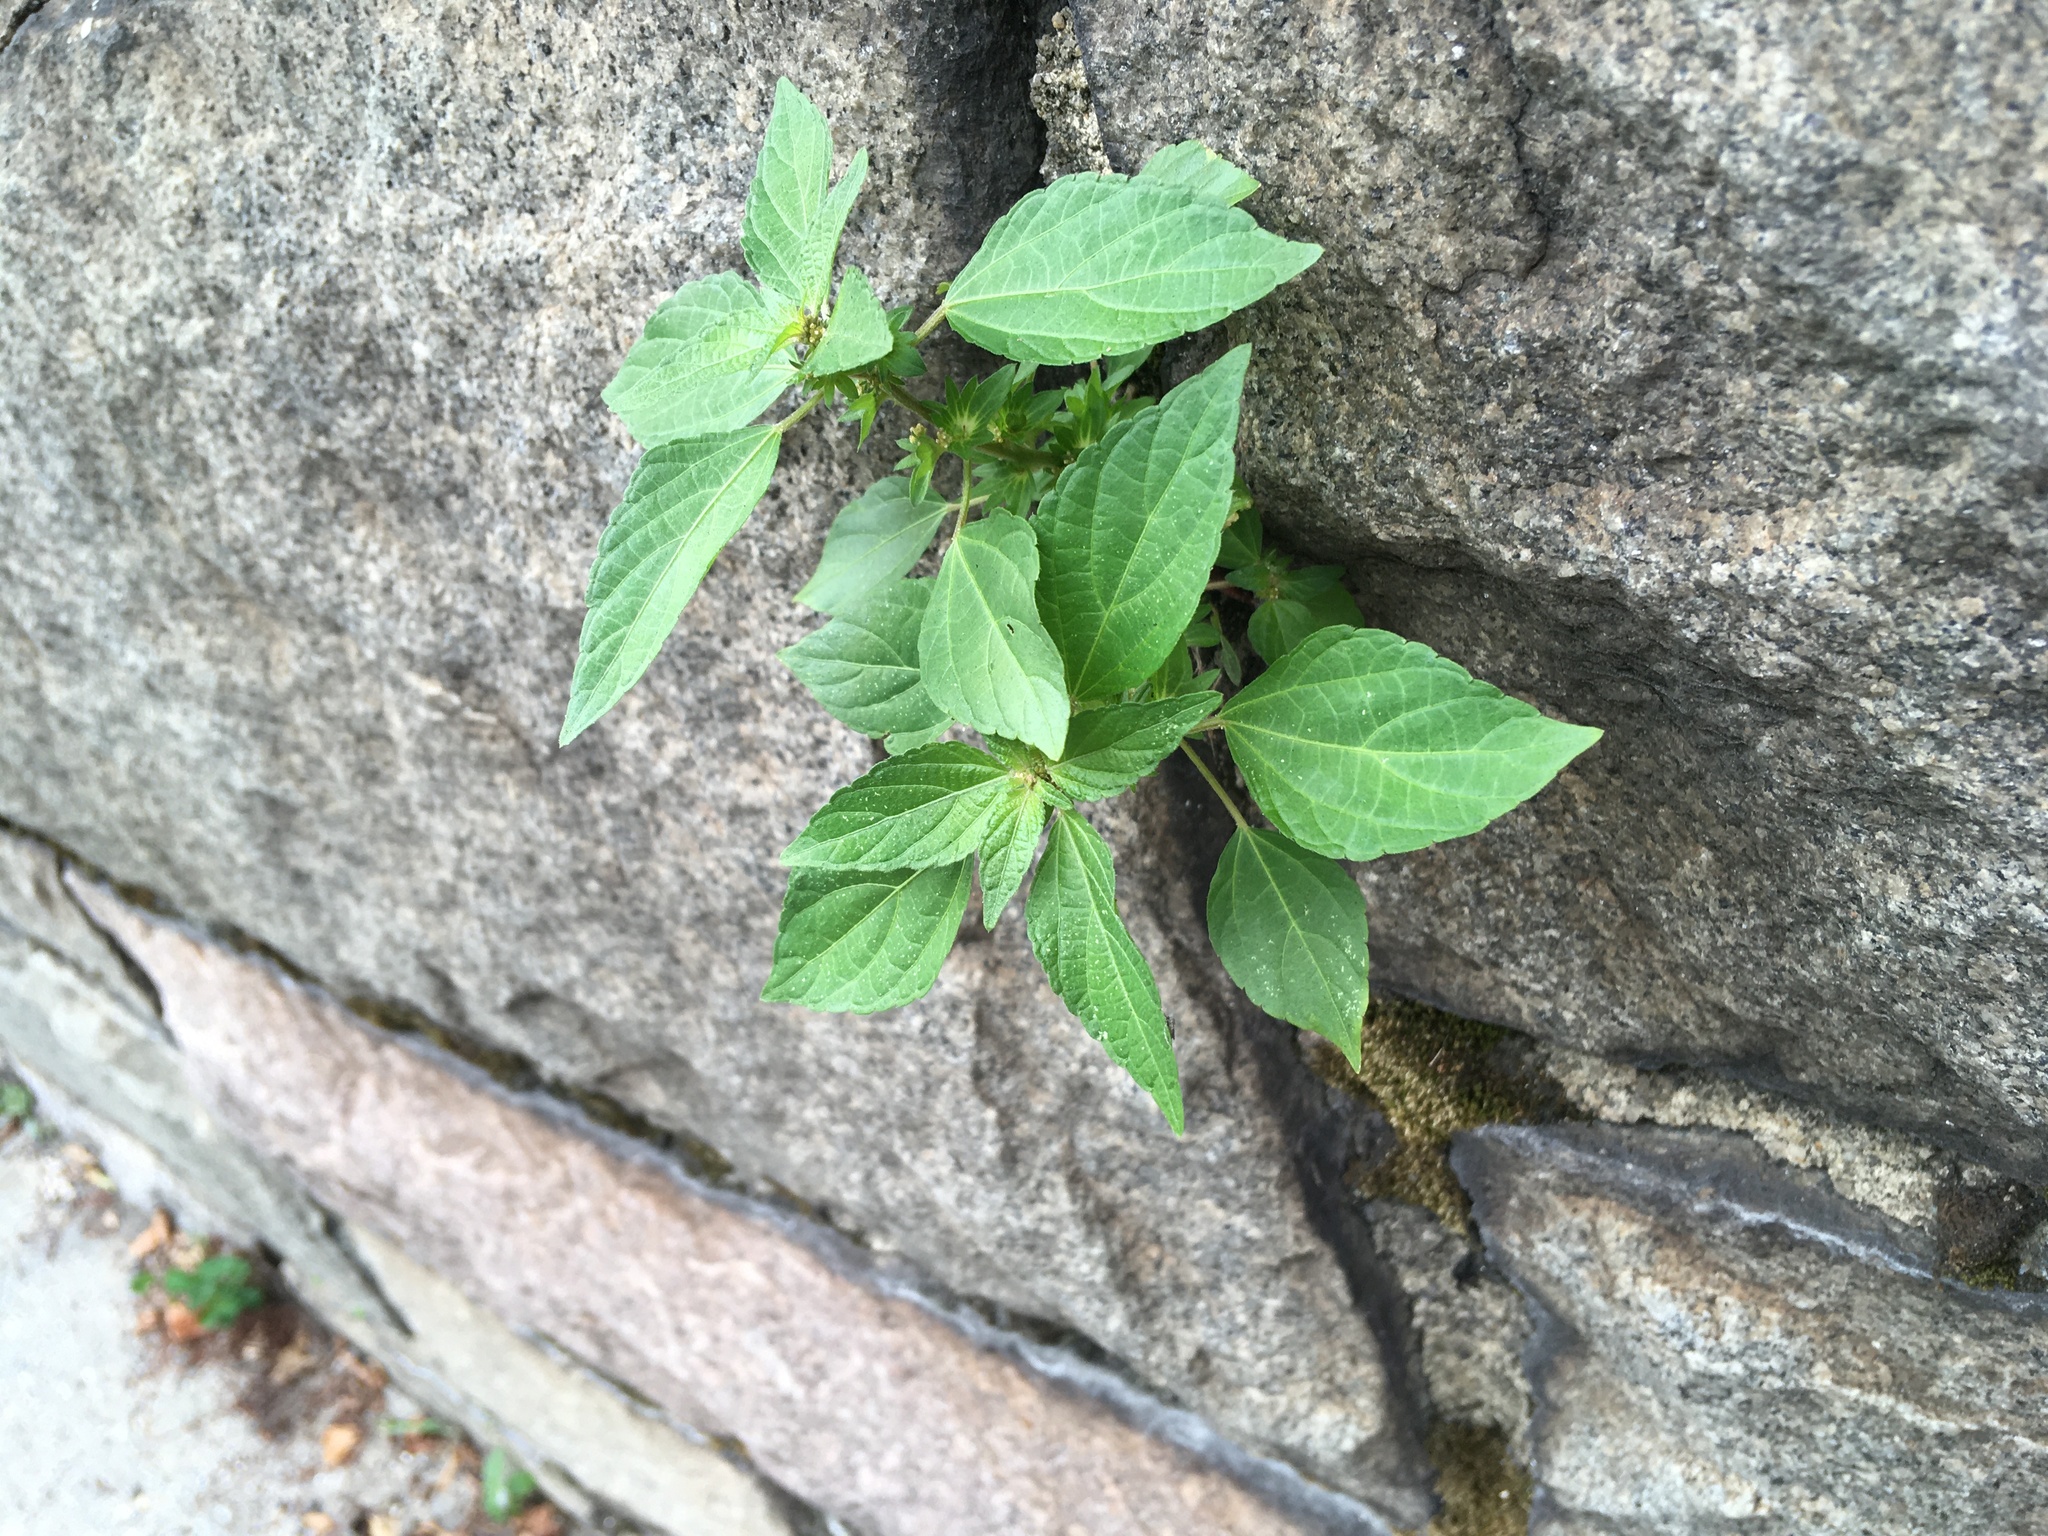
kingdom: Plantae
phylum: Tracheophyta
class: Magnoliopsida
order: Malpighiales
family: Euphorbiaceae
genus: Acalypha
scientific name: Acalypha rhomboidea
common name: Rhombic copperleaf
